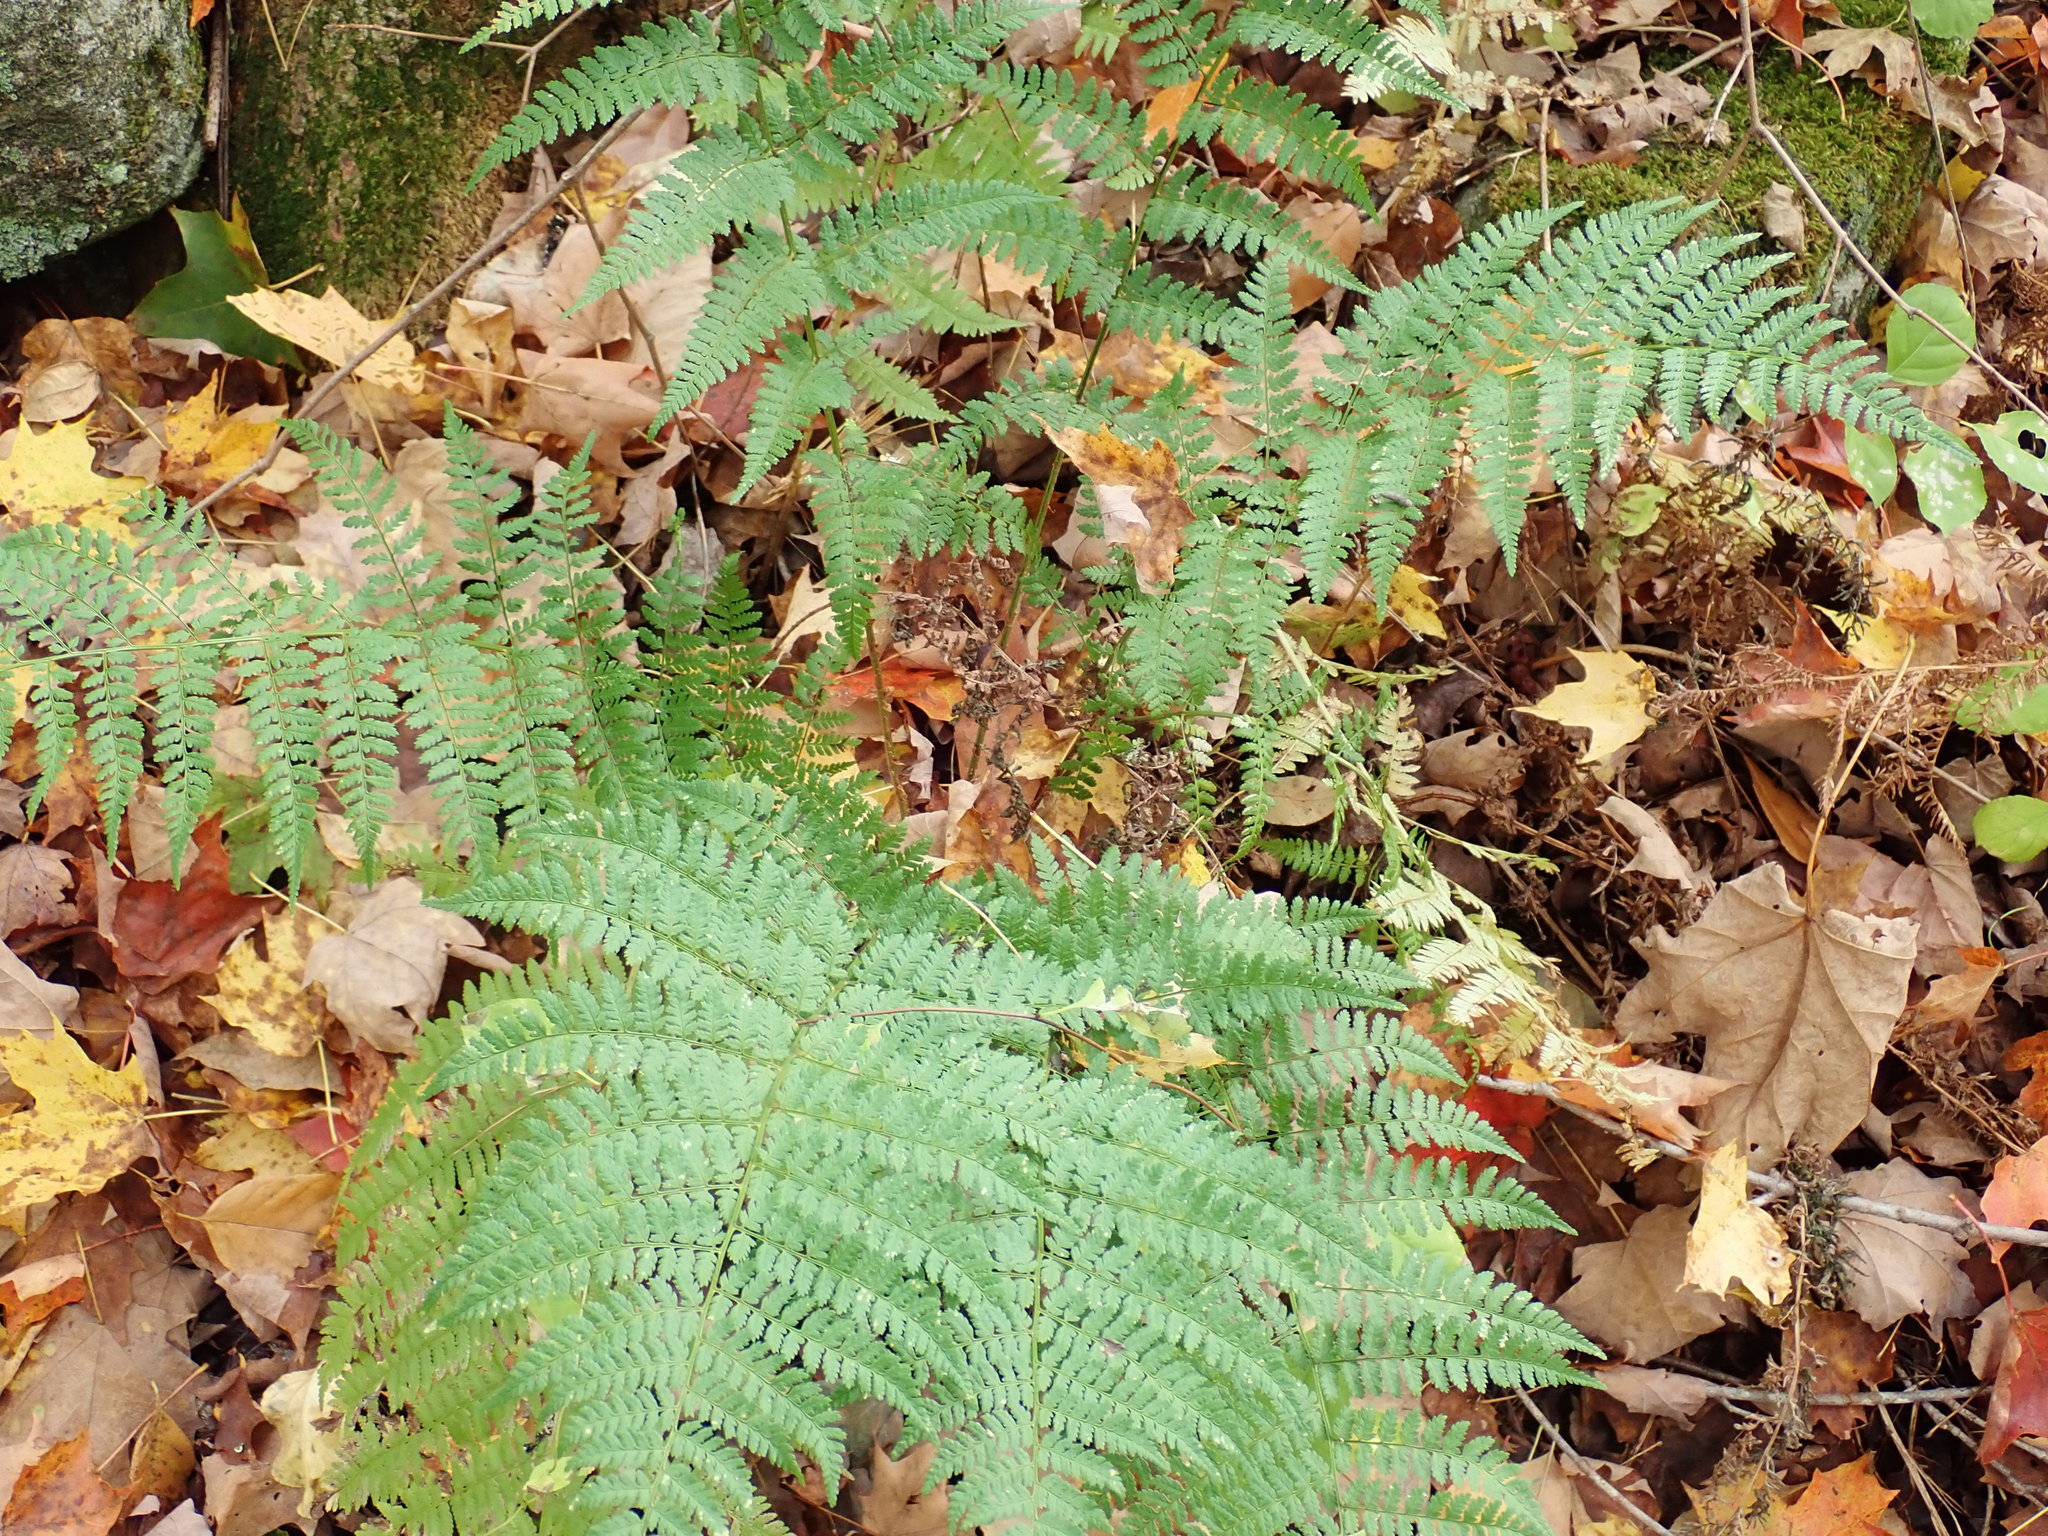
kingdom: Plantae
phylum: Tracheophyta
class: Polypodiopsida
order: Polypodiales
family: Dryopteridaceae
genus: Dryopteris
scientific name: Dryopteris intermedia
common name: Evergreen wood fern
